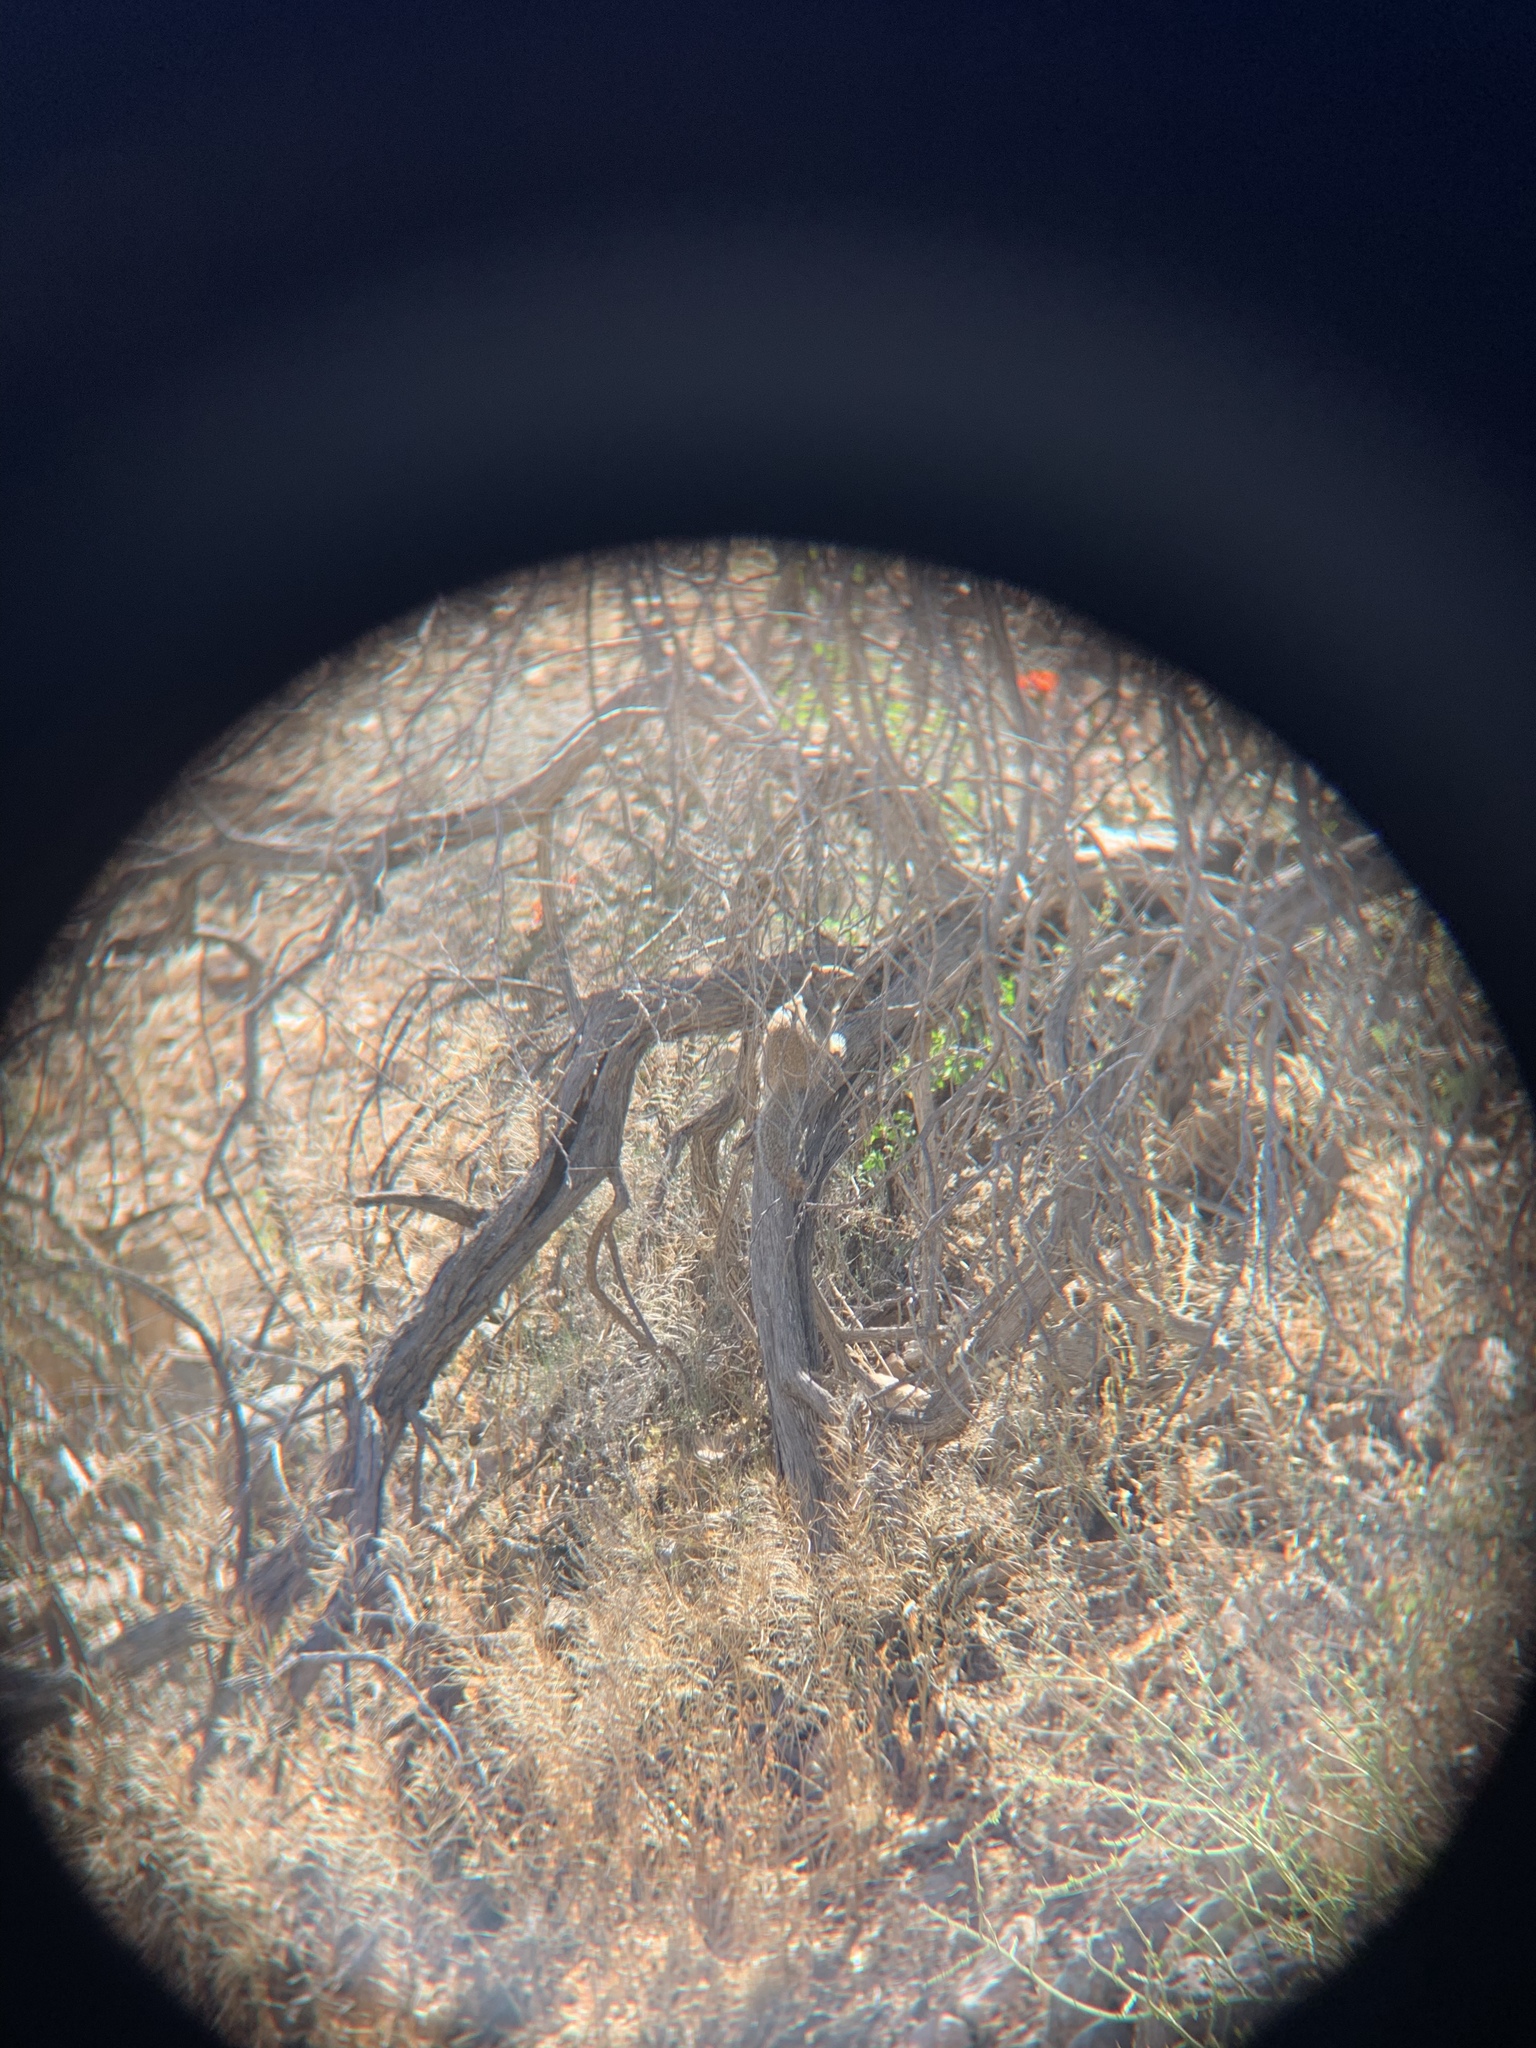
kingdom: Animalia
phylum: Chordata
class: Mammalia
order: Rodentia
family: Sciuridae
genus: Otospermophilus
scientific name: Otospermophilus variegatus
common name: Rock squirrel
